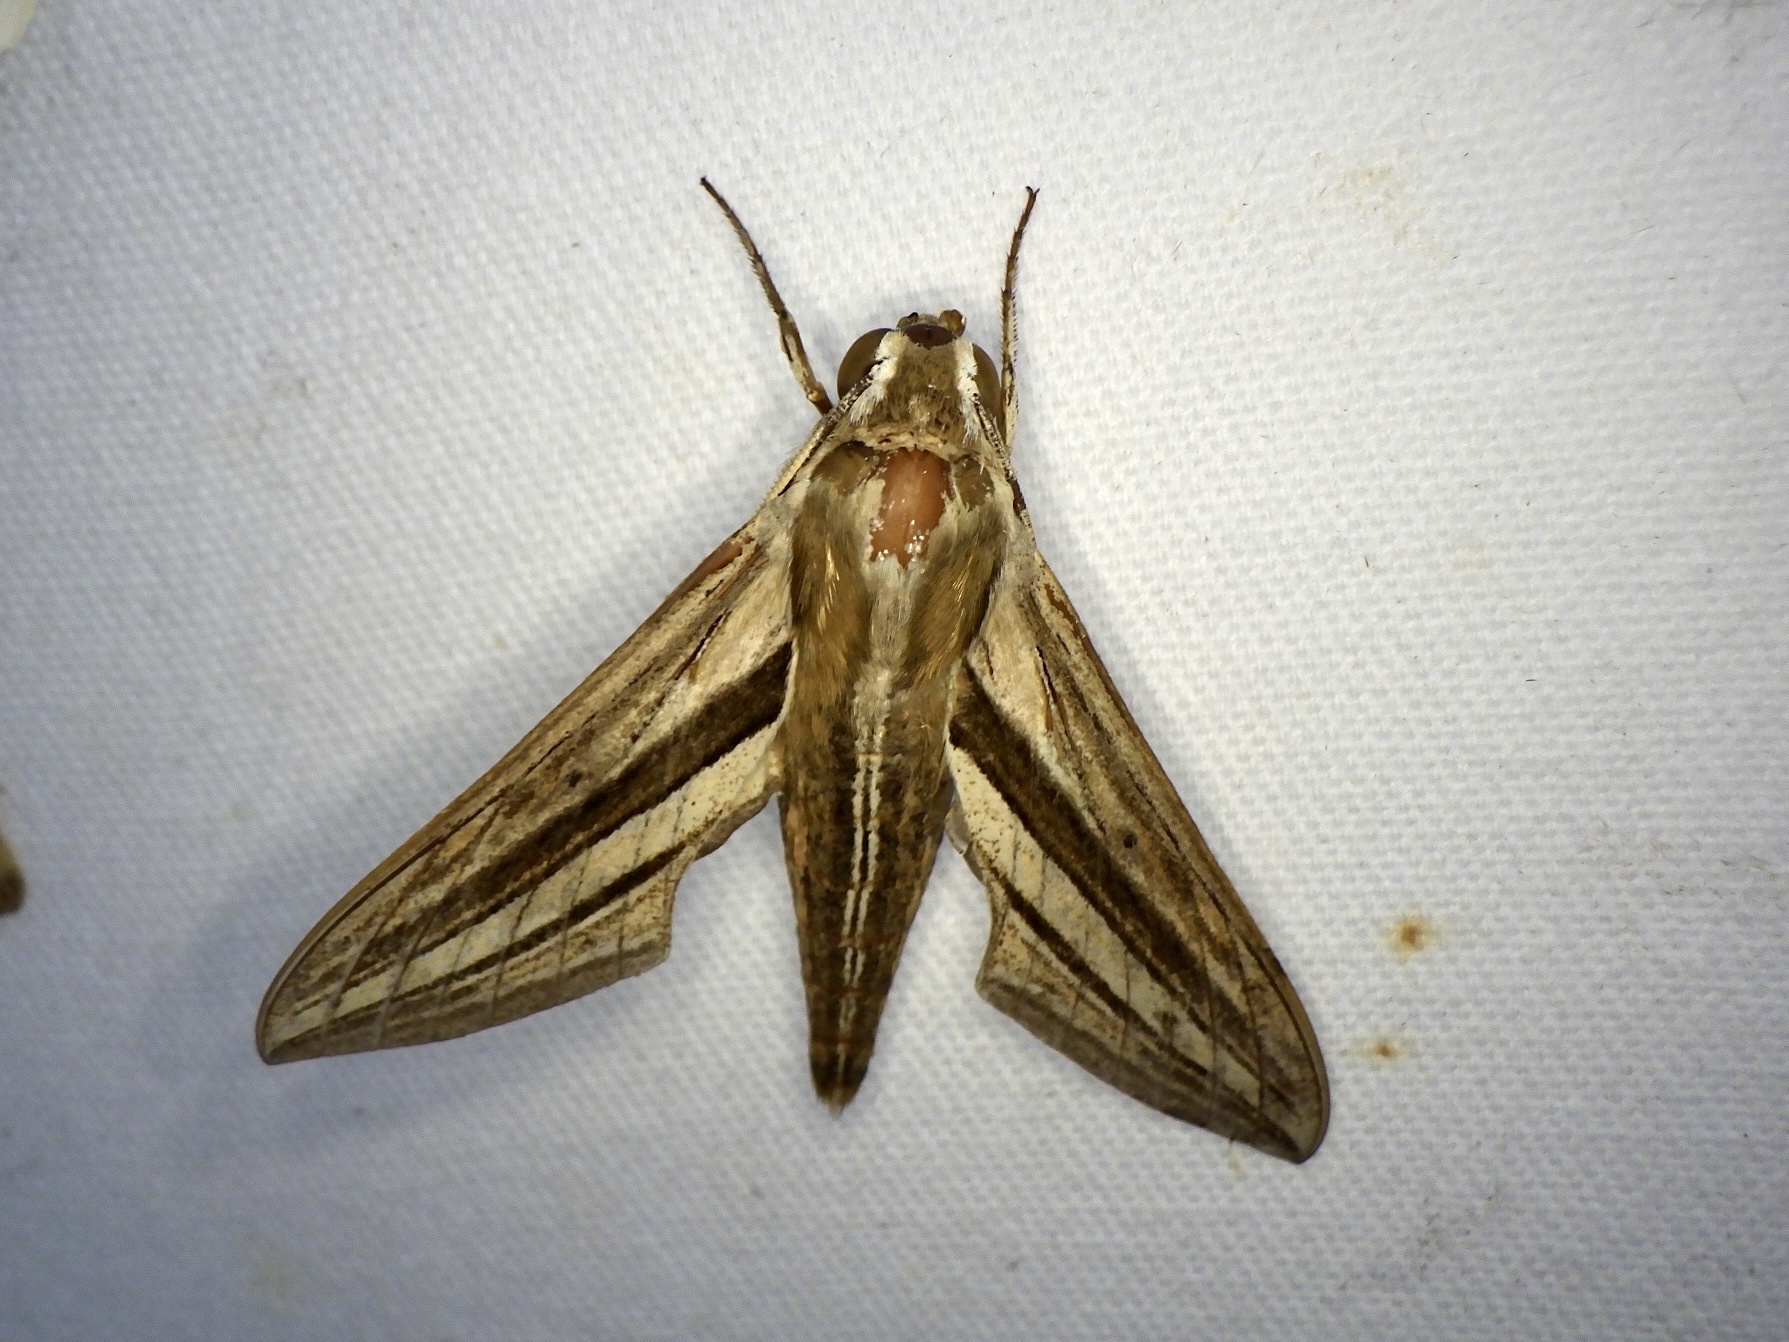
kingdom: Animalia
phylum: Arthropoda
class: Insecta
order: Lepidoptera
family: Sphingidae
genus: Theretra
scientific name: Theretra oldenlandiae
